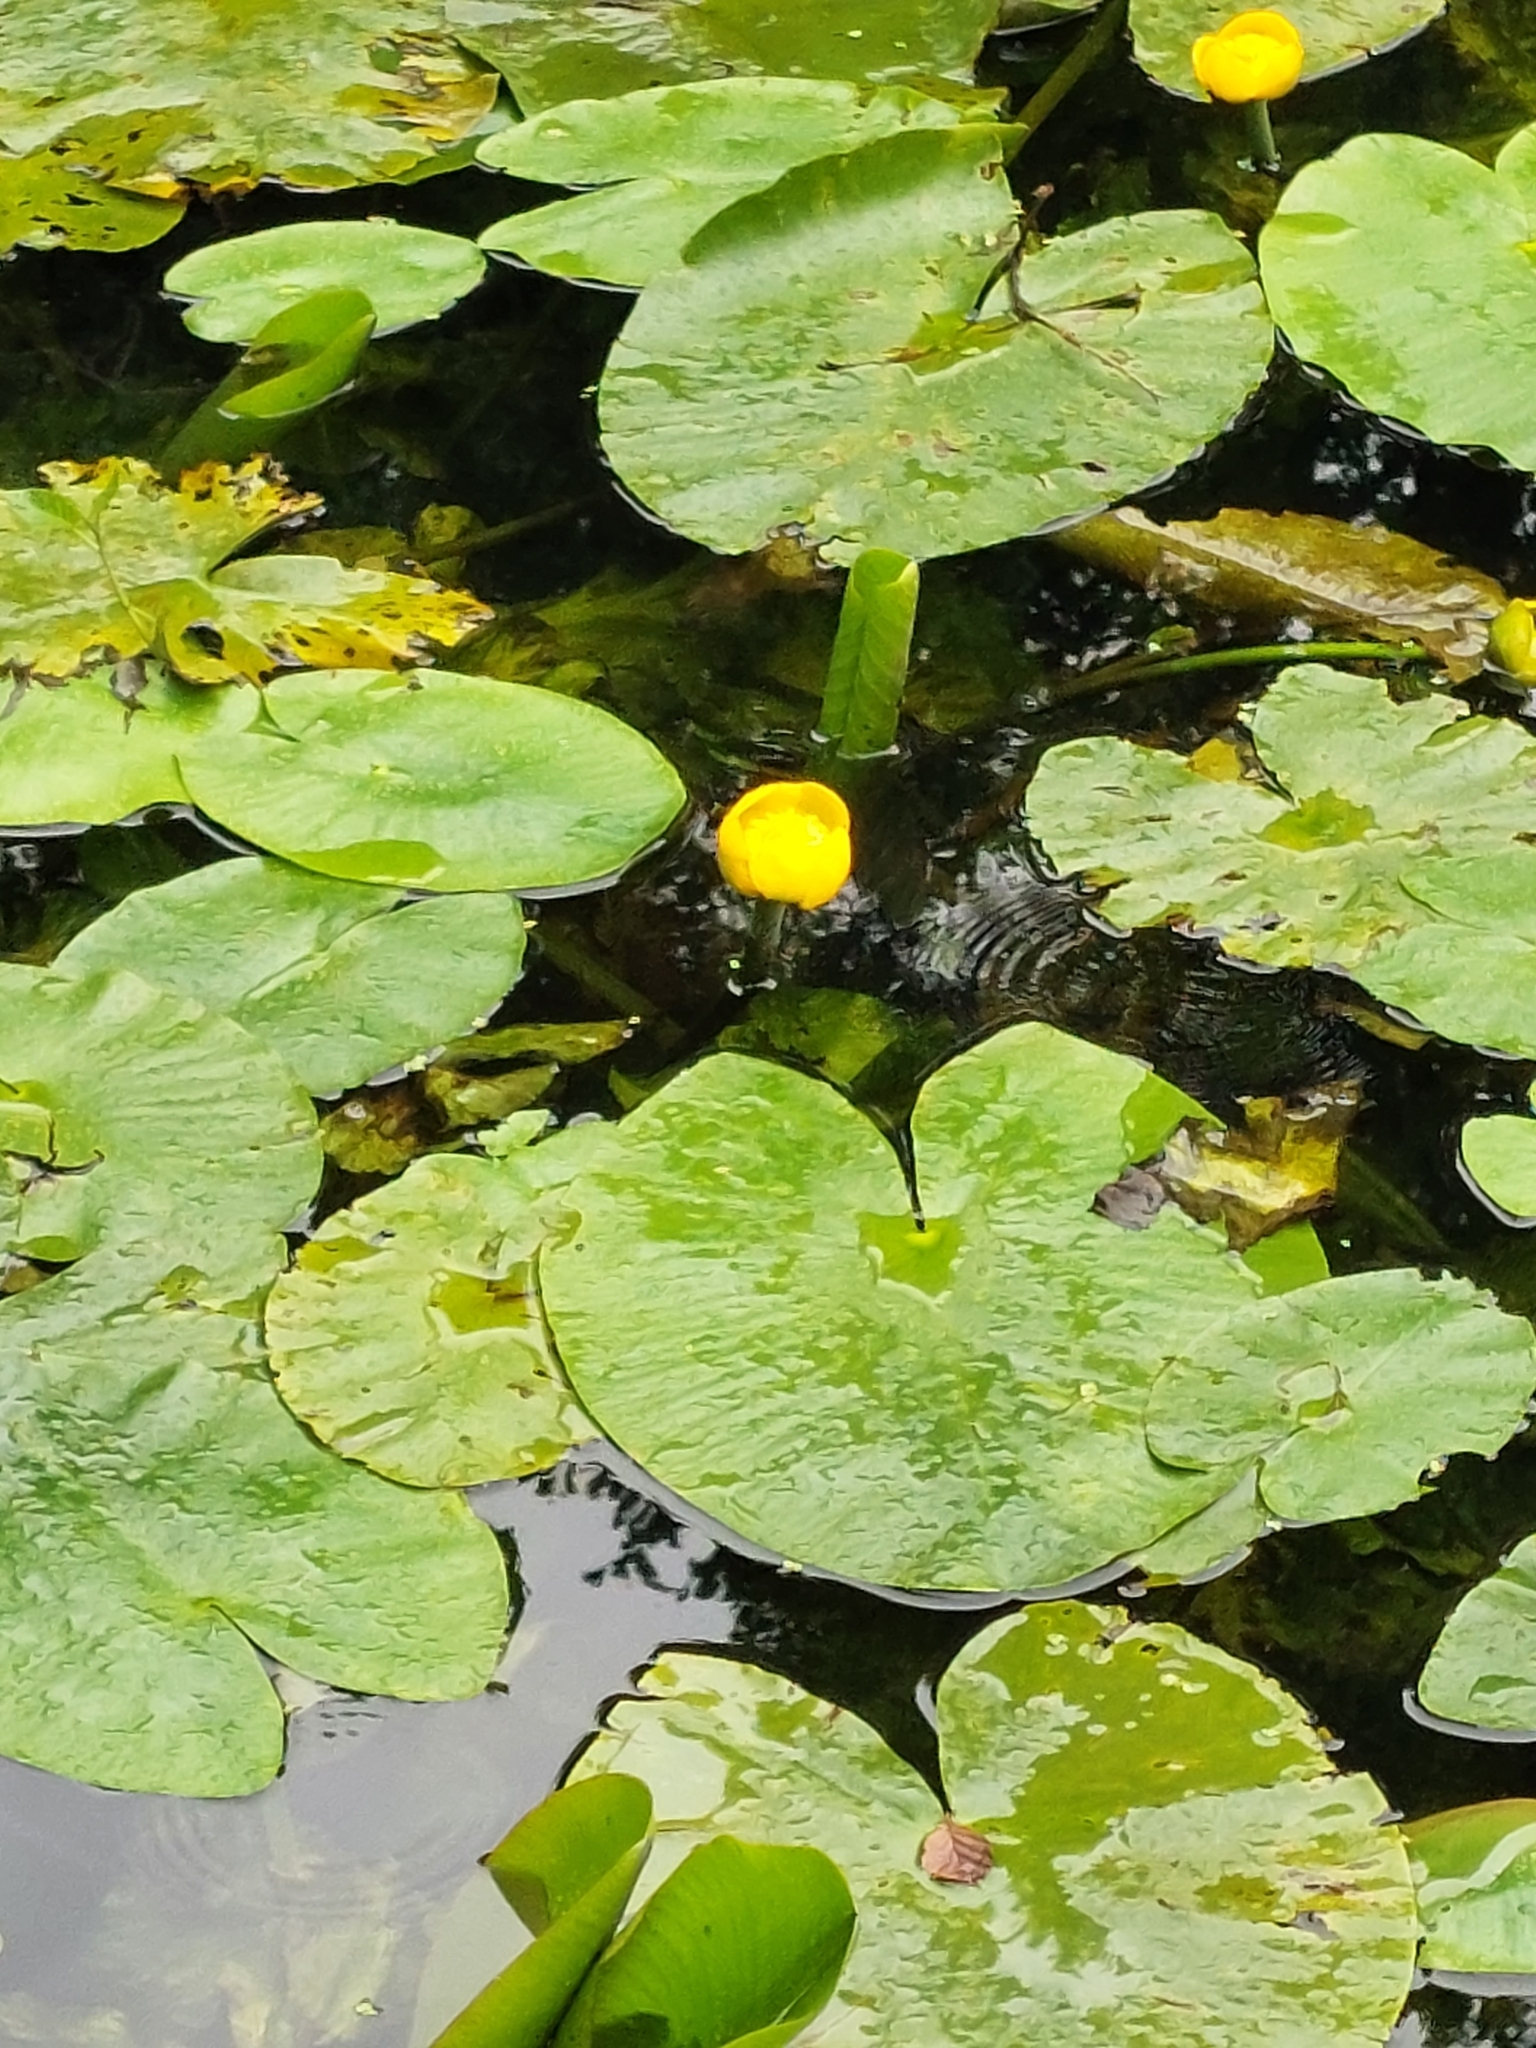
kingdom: Plantae
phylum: Tracheophyta
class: Magnoliopsida
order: Nymphaeales
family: Nymphaeaceae
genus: Nuphar
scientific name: Nuphar lutea
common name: Yellow water-lily
